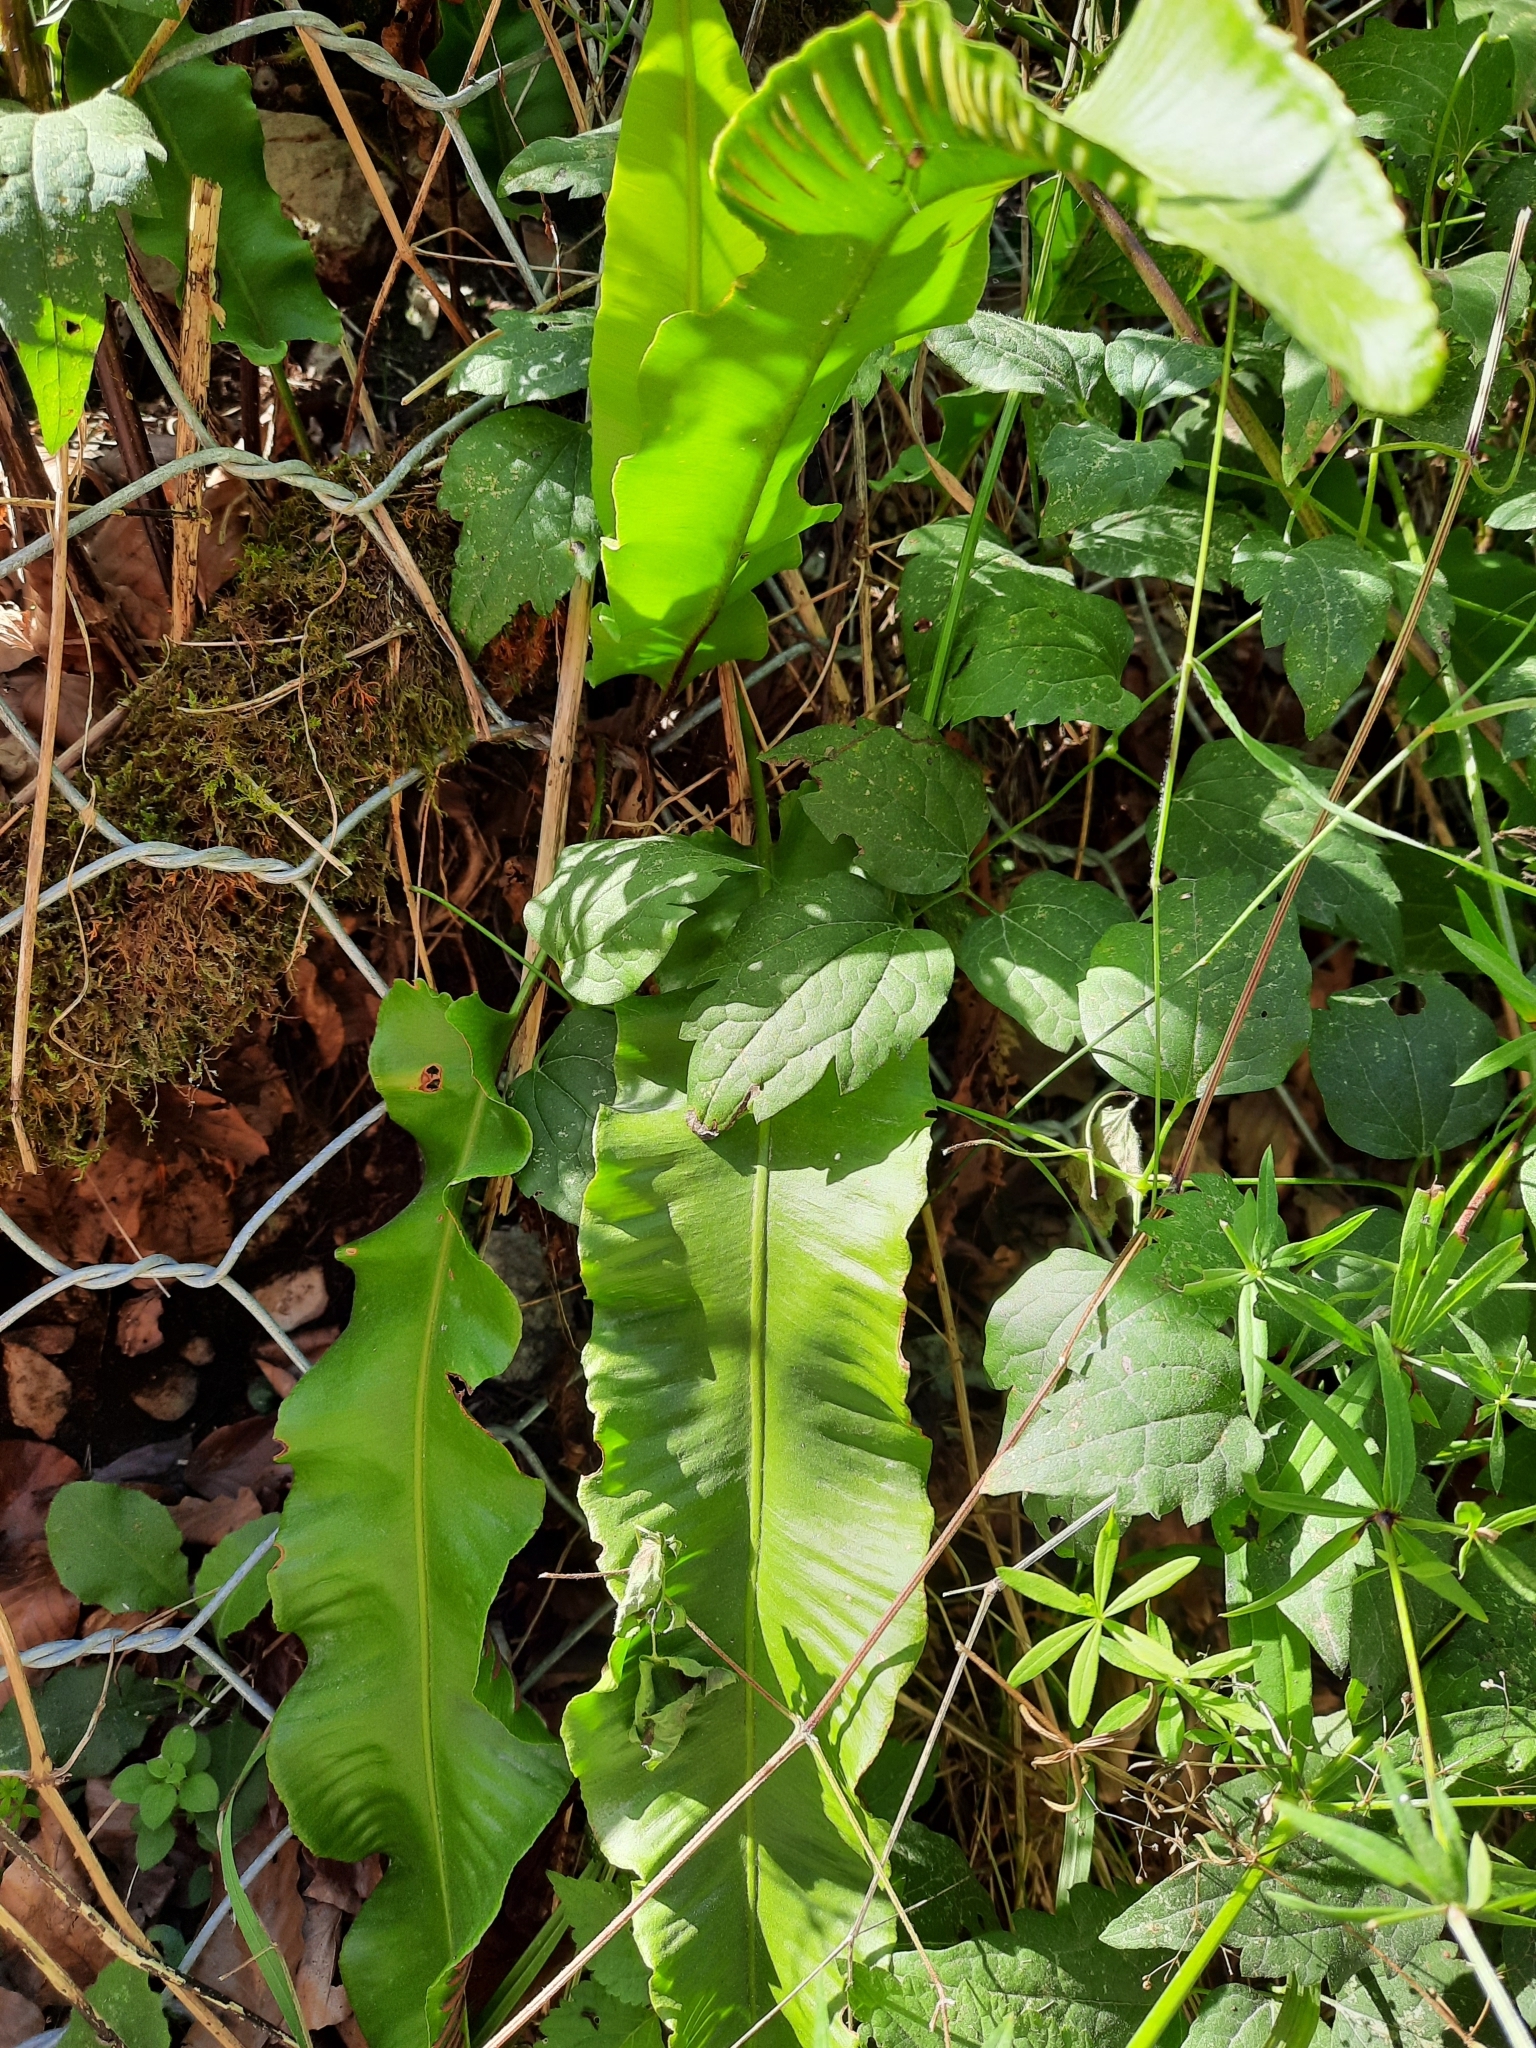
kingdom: Plantae
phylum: Tracheophyta
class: Polypodiopsida
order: Polypodiales
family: Aspleniaceae
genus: Asplenium
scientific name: Asplenium scolopendrium
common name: Hart's-tongue fern
